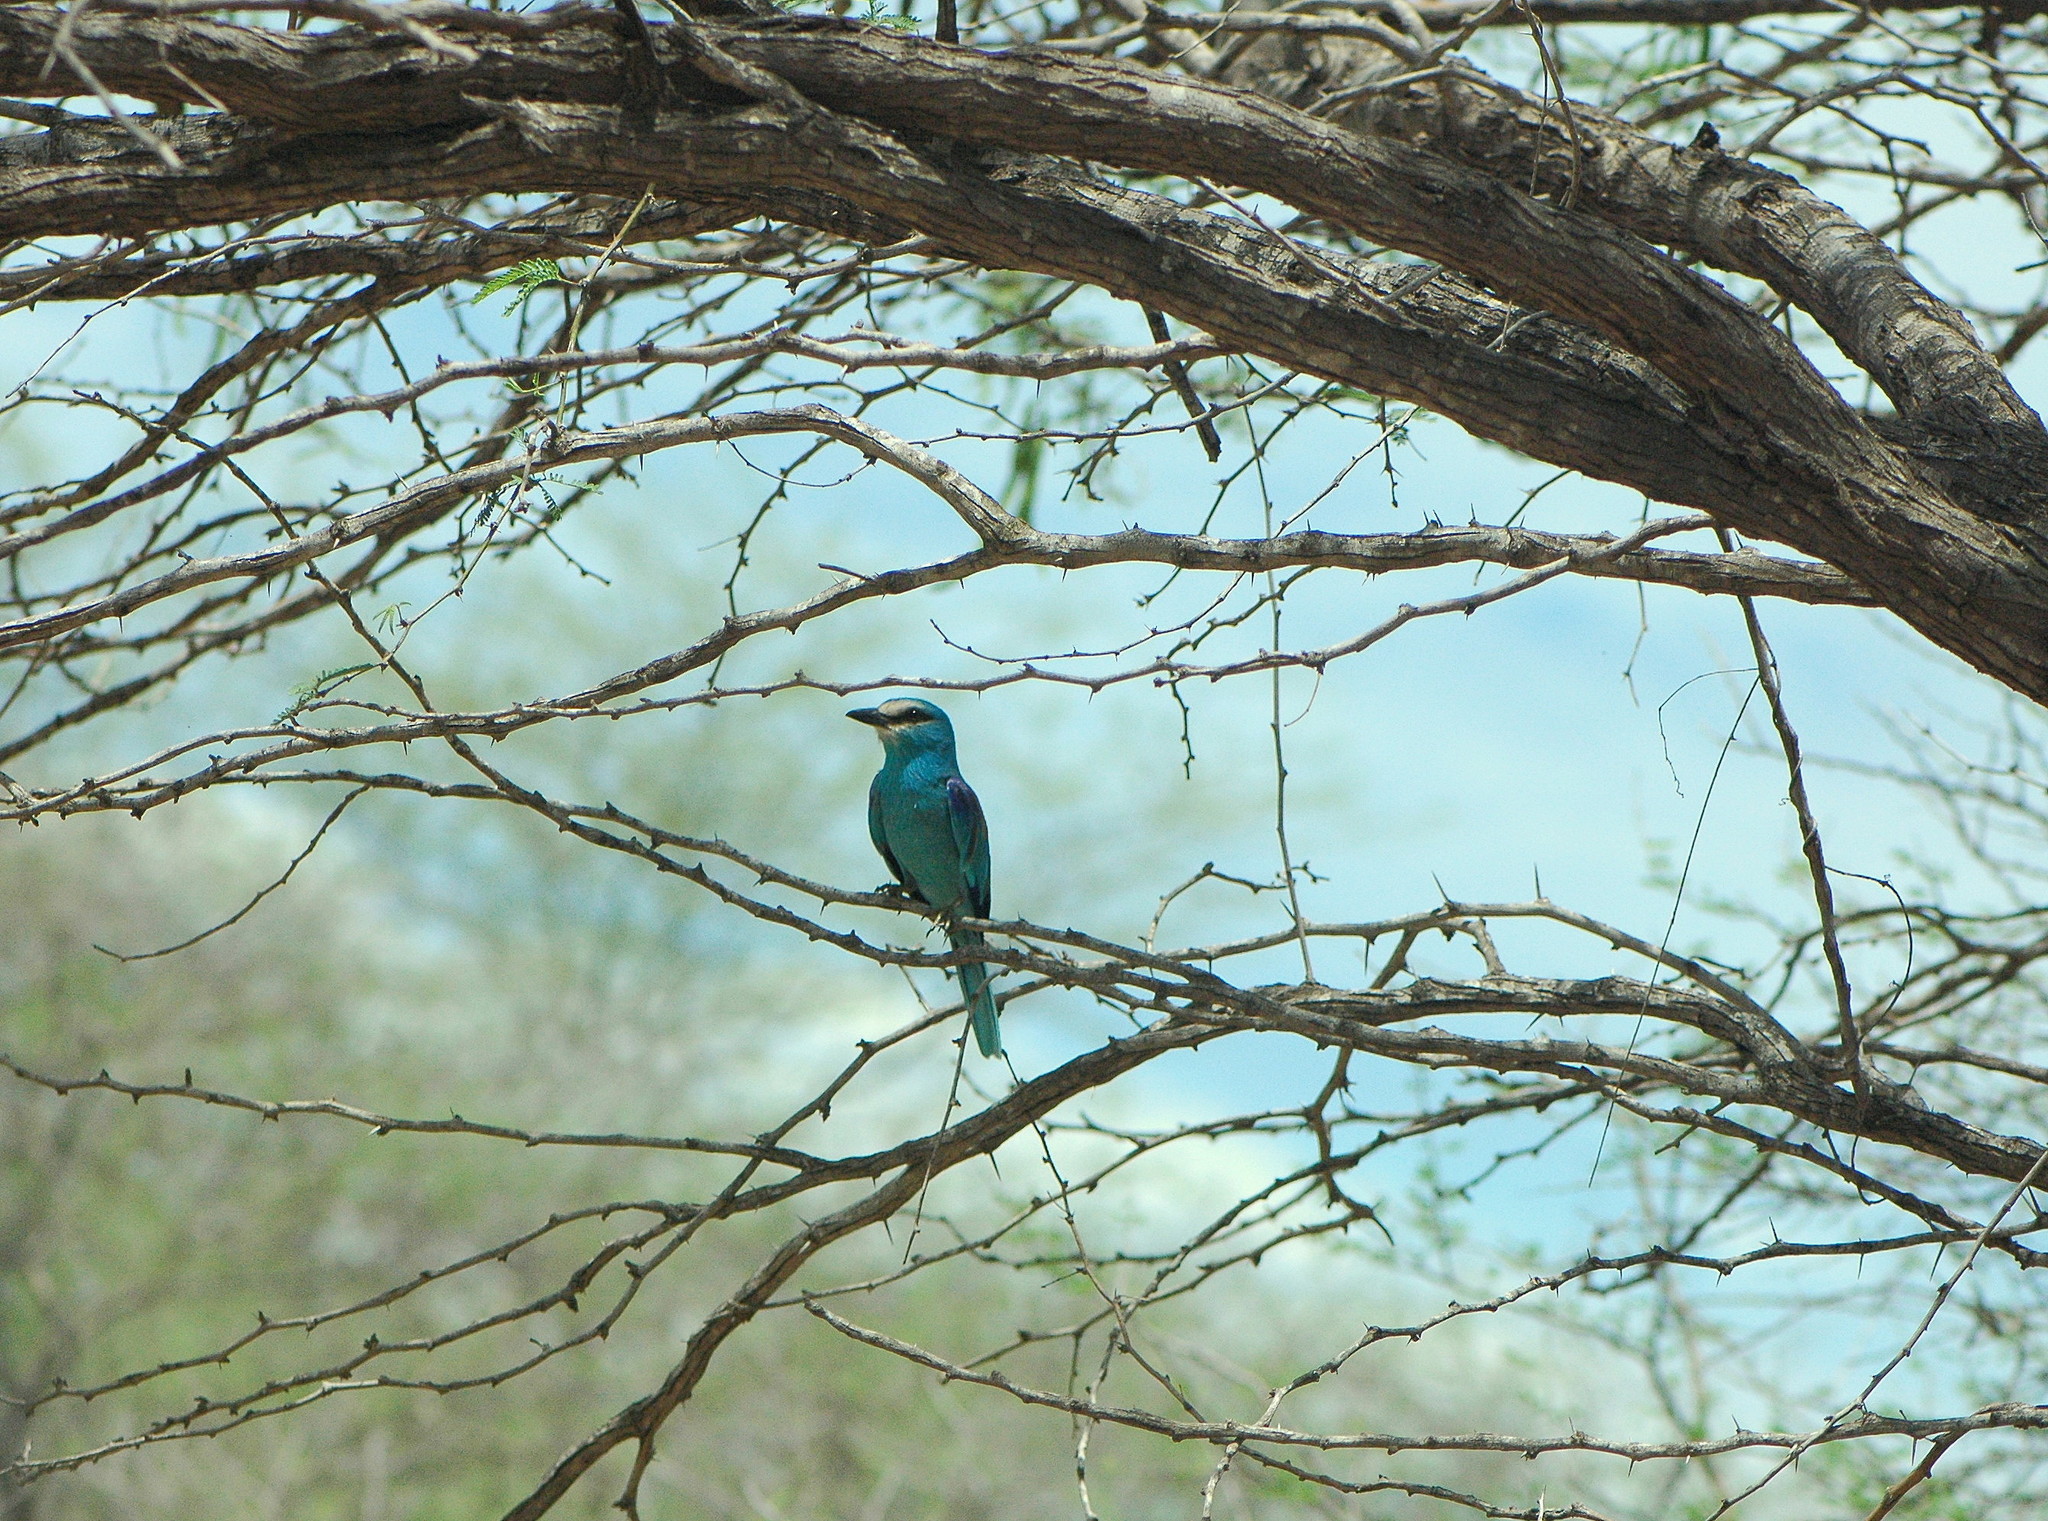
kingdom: Animalia
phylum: Chordata
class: Aves
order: Coraciiformes
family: Coraciidae
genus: Coracias
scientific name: Coracias abyssinicus
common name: Abyssinian roller
